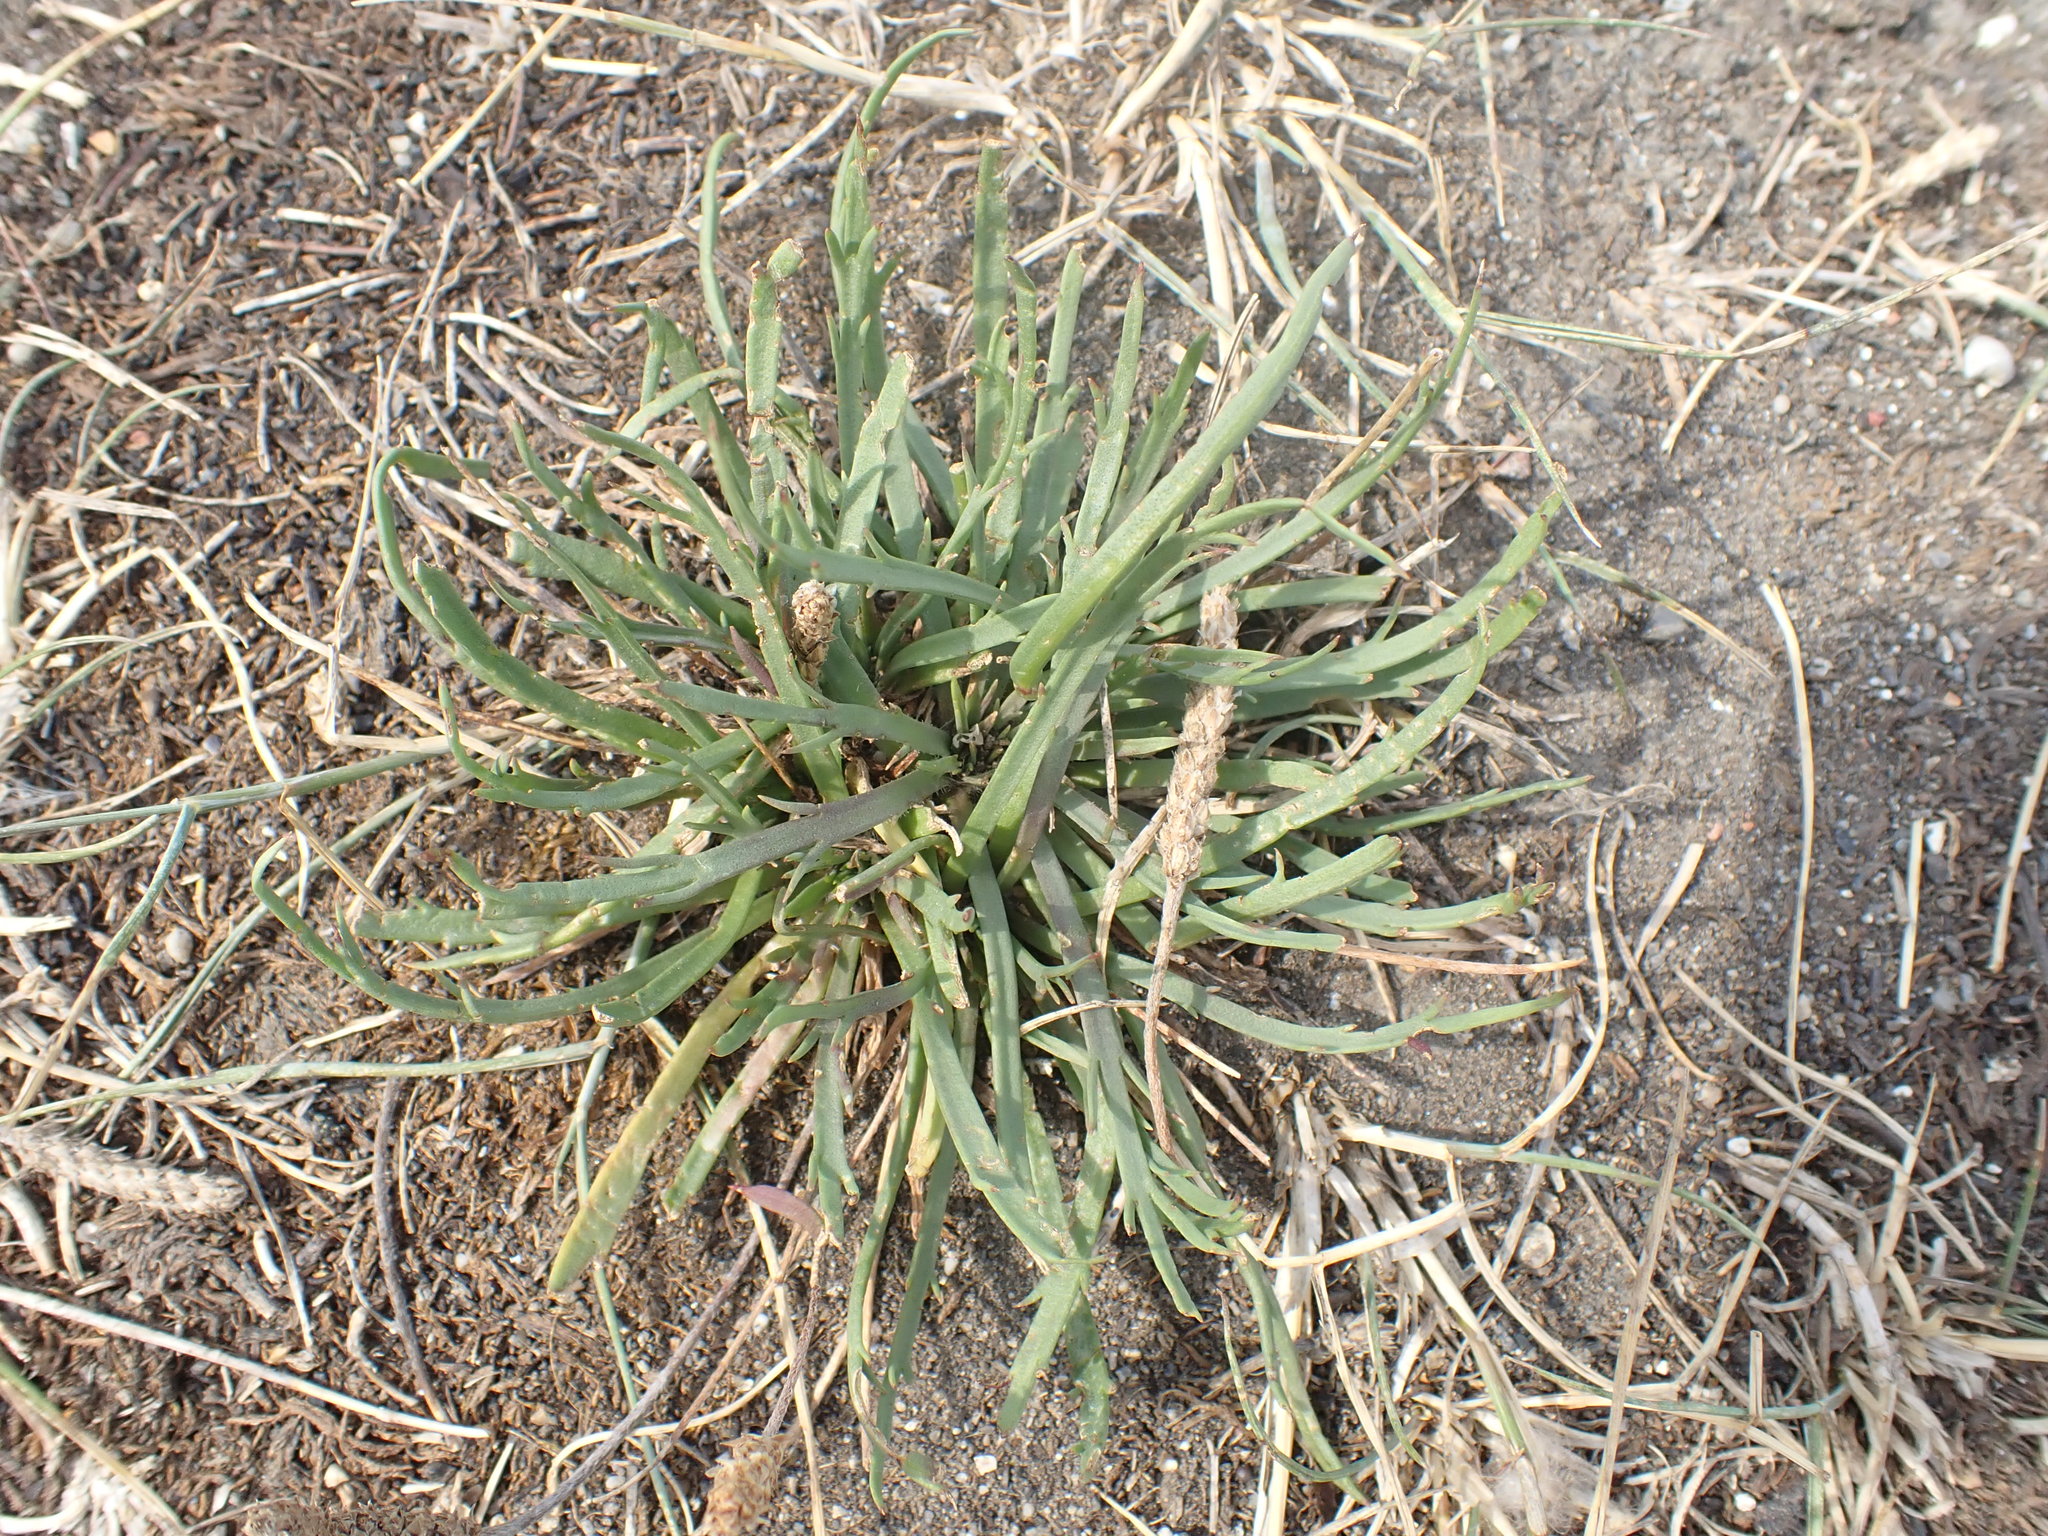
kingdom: Plantae
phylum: Tracheophyta
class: Magnoliopsida
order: Lamiales
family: Plantaginaceae
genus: Plantago
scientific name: Plantago coronopus
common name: Buck's-horn plantain
